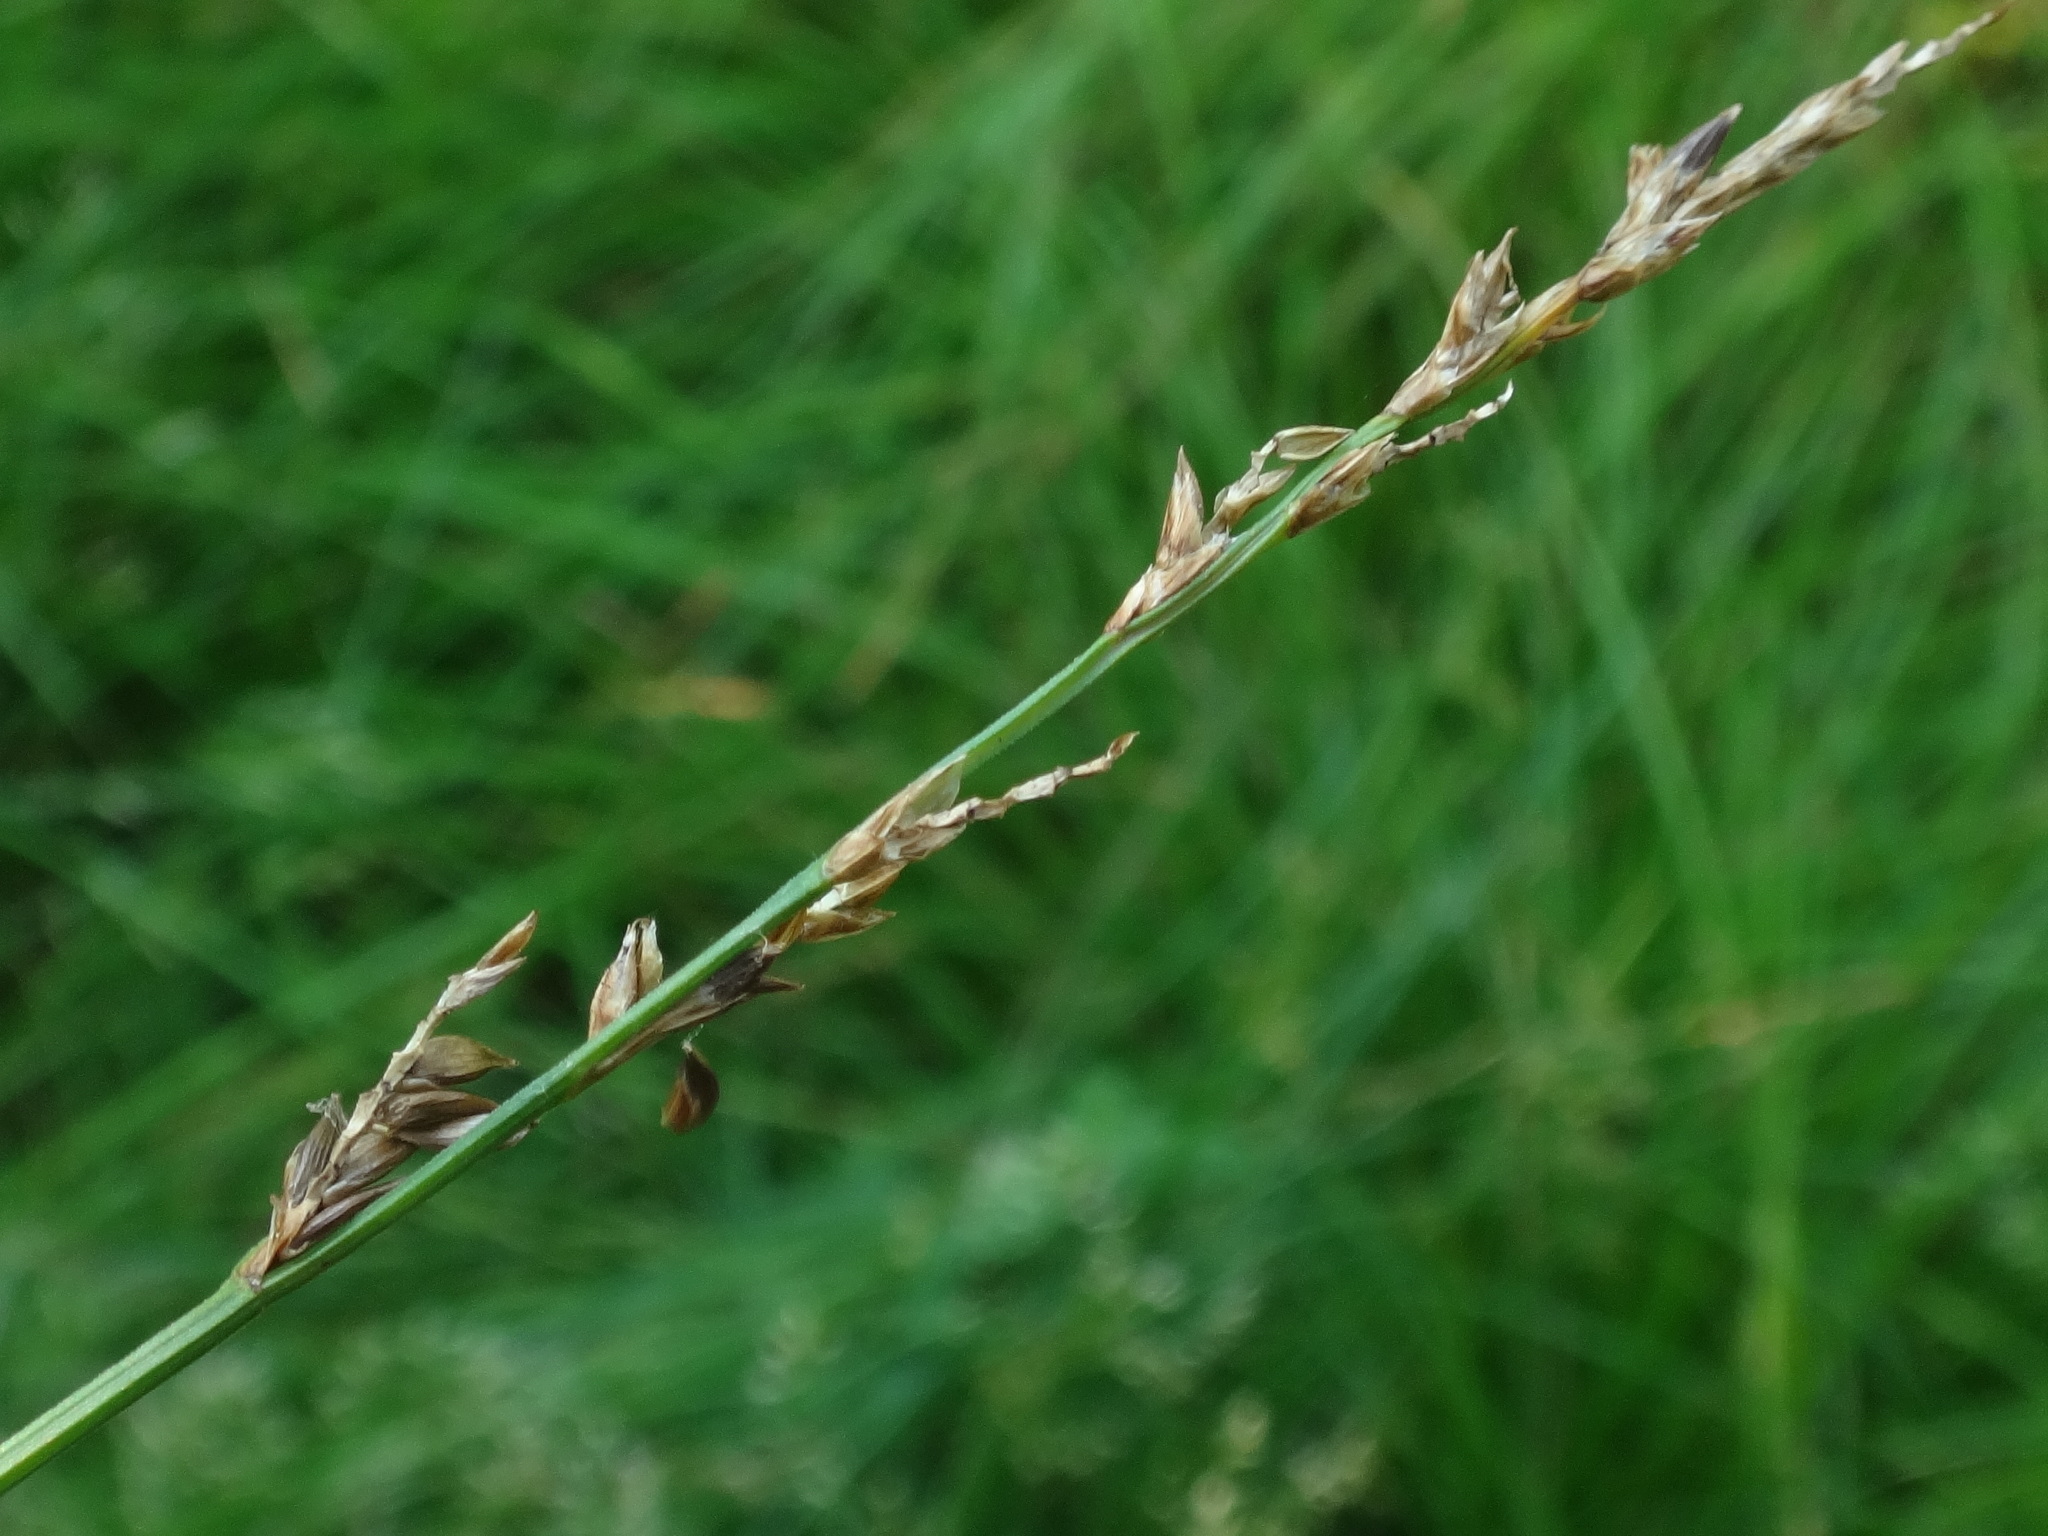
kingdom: Plantae
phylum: Tracheophyta
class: Liliopsida
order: Poales
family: Cyperaceae
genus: Carex
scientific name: Carex elongata
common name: Elongated sedge
